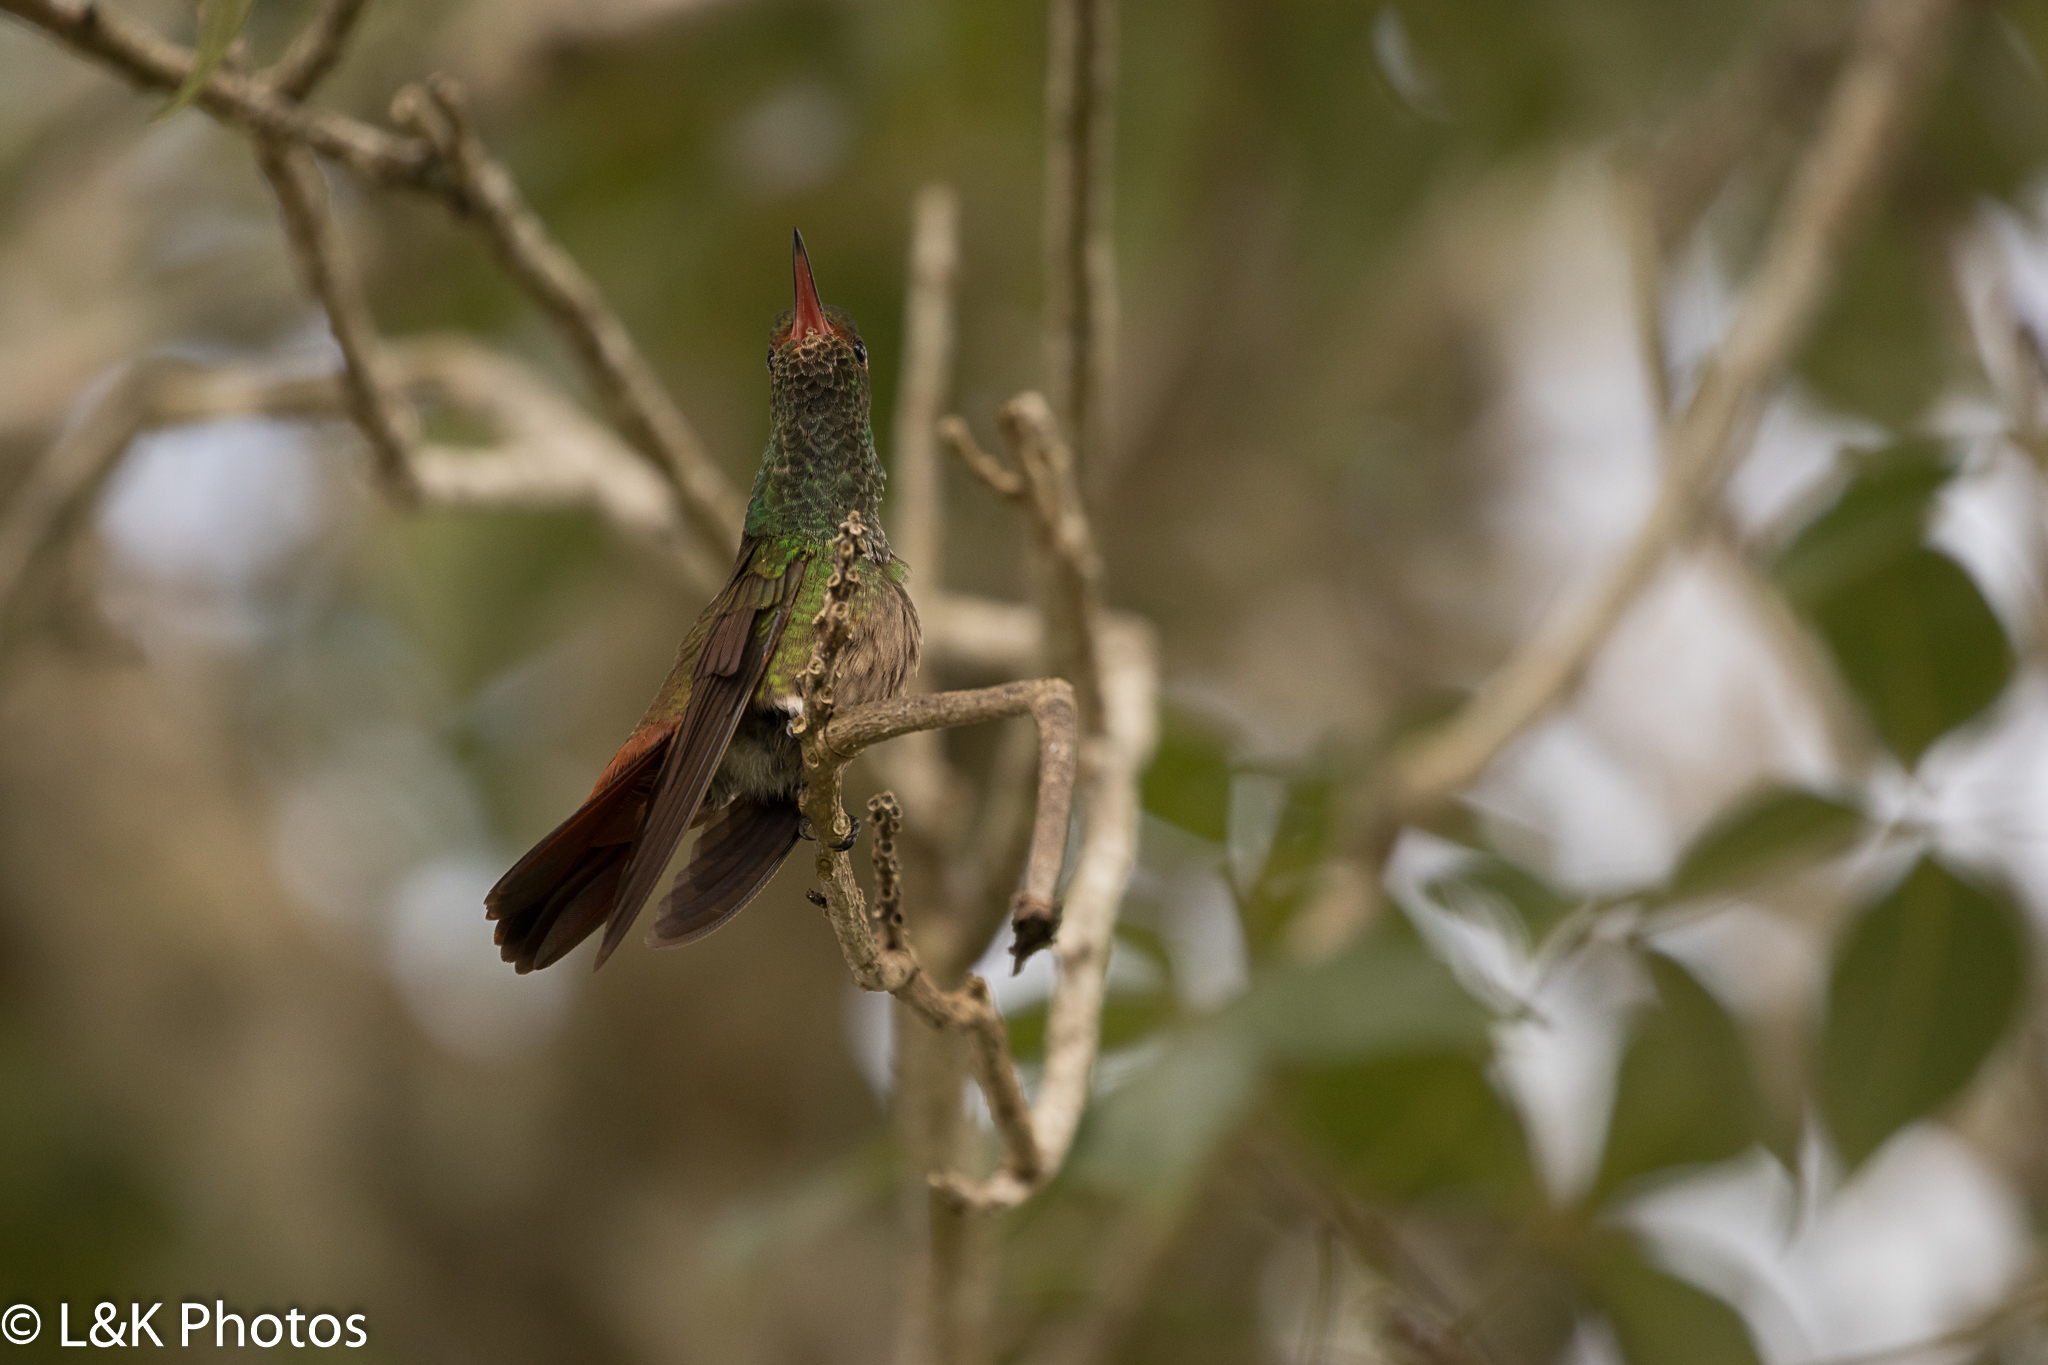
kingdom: Animalia
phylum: Chordata
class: Aves
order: Apodiformes
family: Trochilidae
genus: Amazilia
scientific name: Amazilia tzacatl
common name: Rufous-tailed hummingbird
